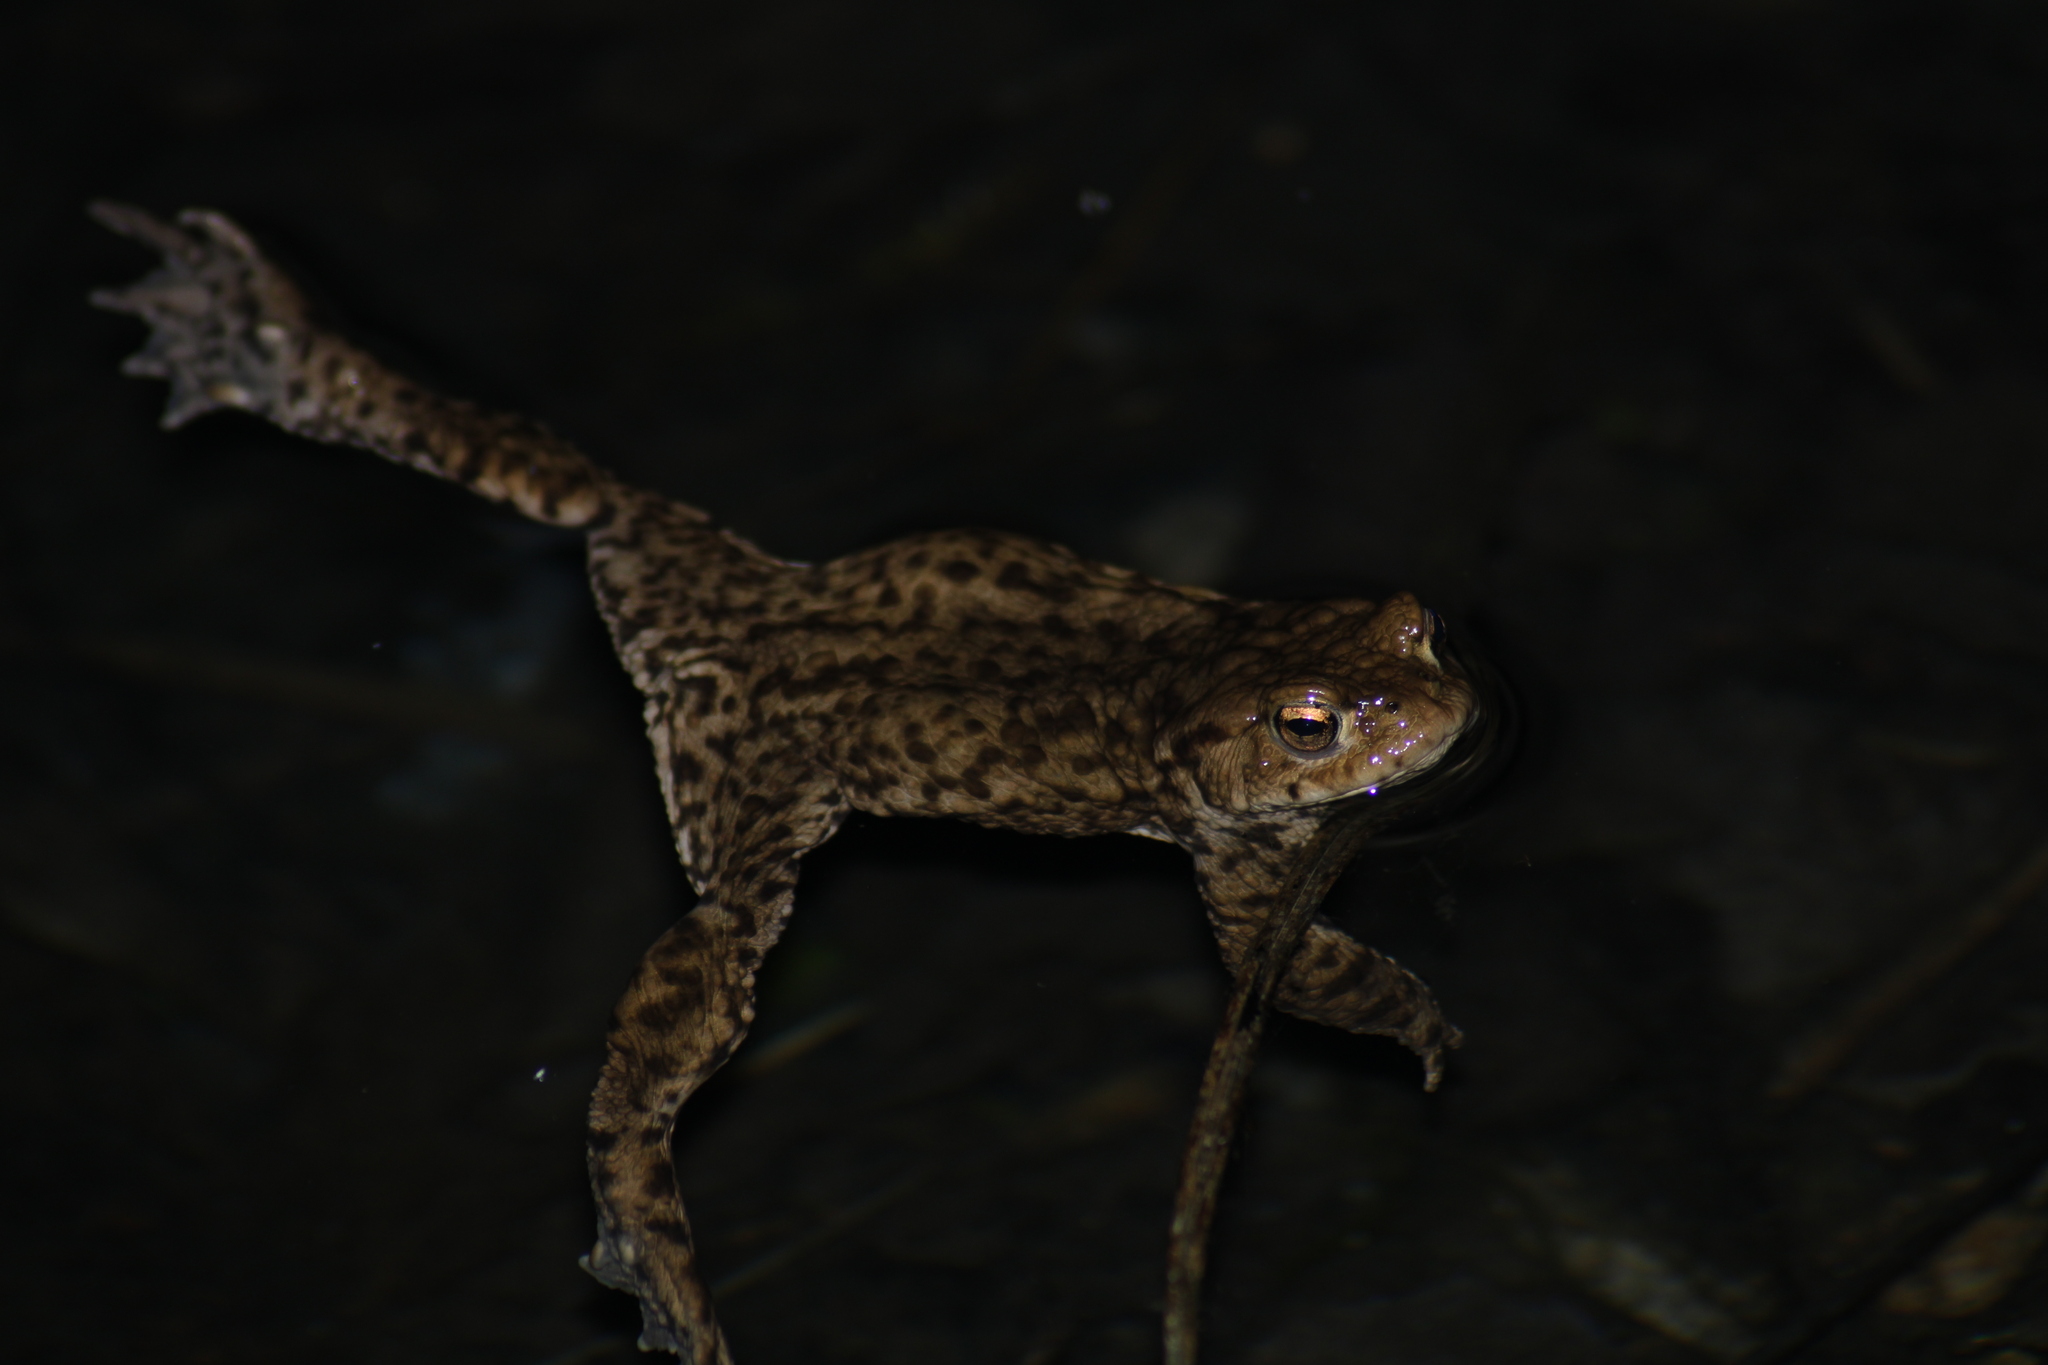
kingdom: Animalia
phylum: Chordata
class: Amphibia
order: Anura
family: Bufonidae
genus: Bufo
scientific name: Bufo bufo
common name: Common toad
